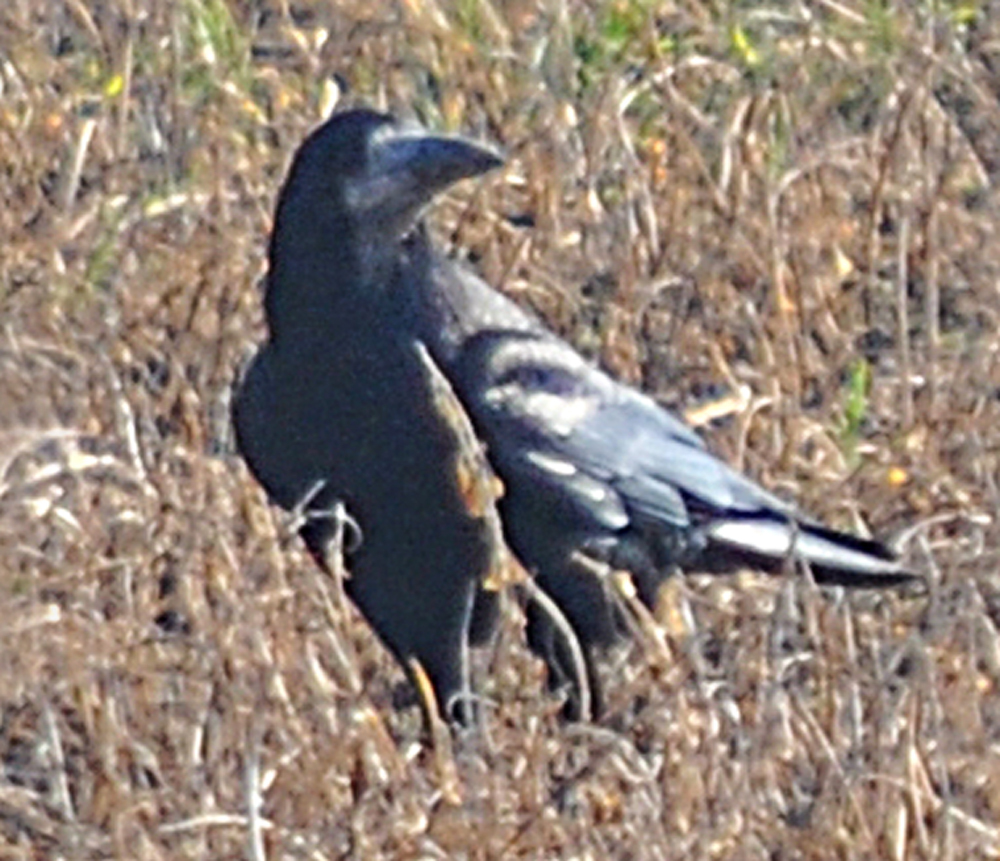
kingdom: Animalia
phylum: Chordata
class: Aves
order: Passeriformes
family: Corvidae
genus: Corvus
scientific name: Corvus frugilegus
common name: Rook
